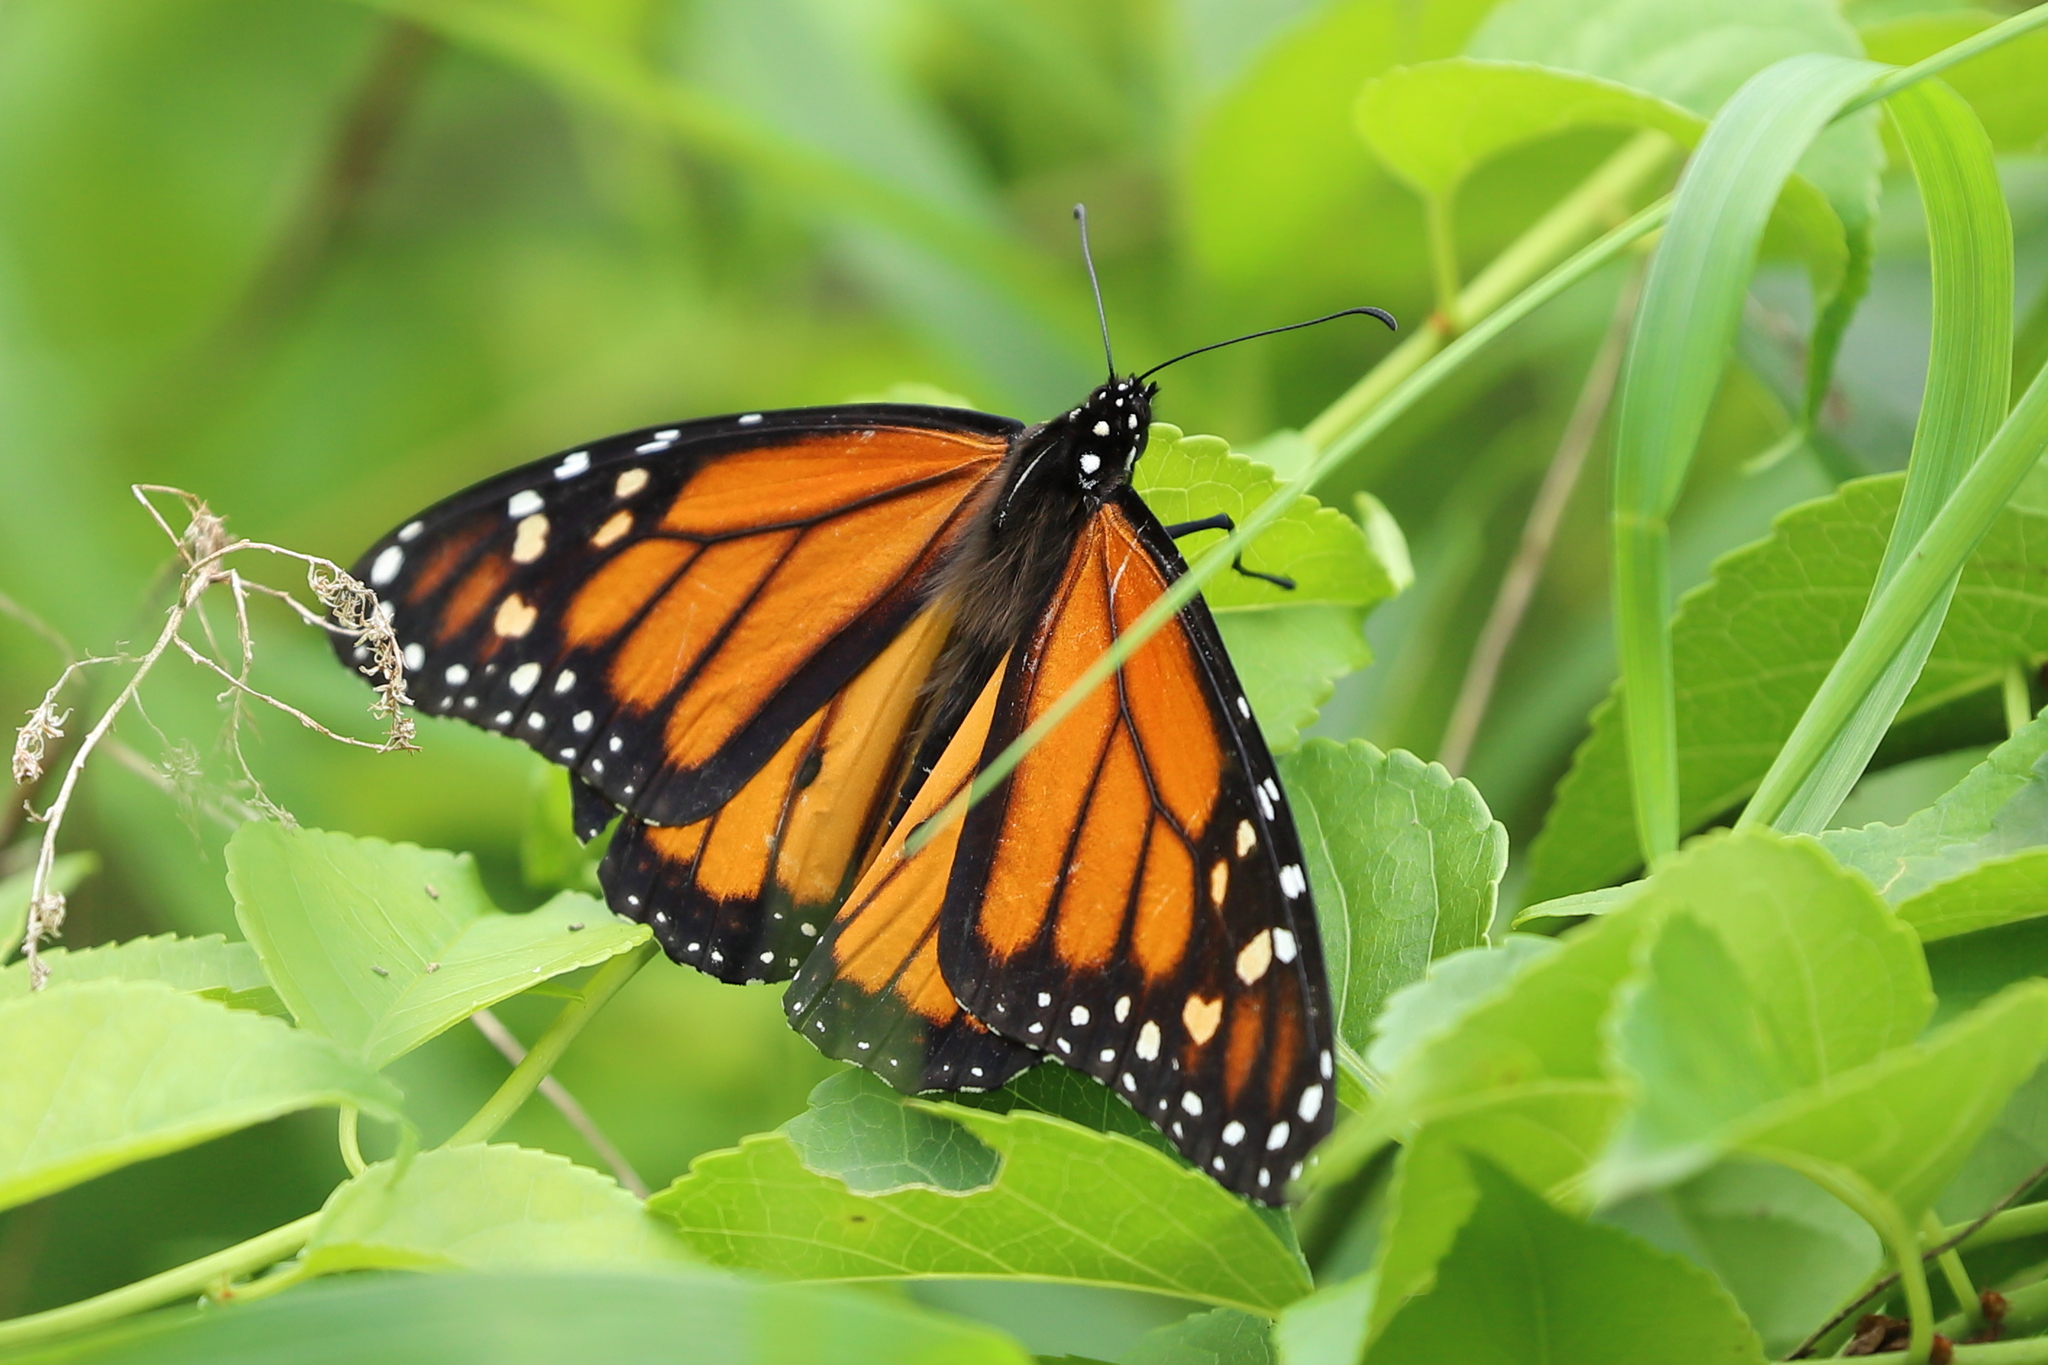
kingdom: Animalia
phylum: Arthropoda
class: Insecta
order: Lepidoptera
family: Nymphalidae
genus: Danaus
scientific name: Danaus plexippus
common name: Monarch
